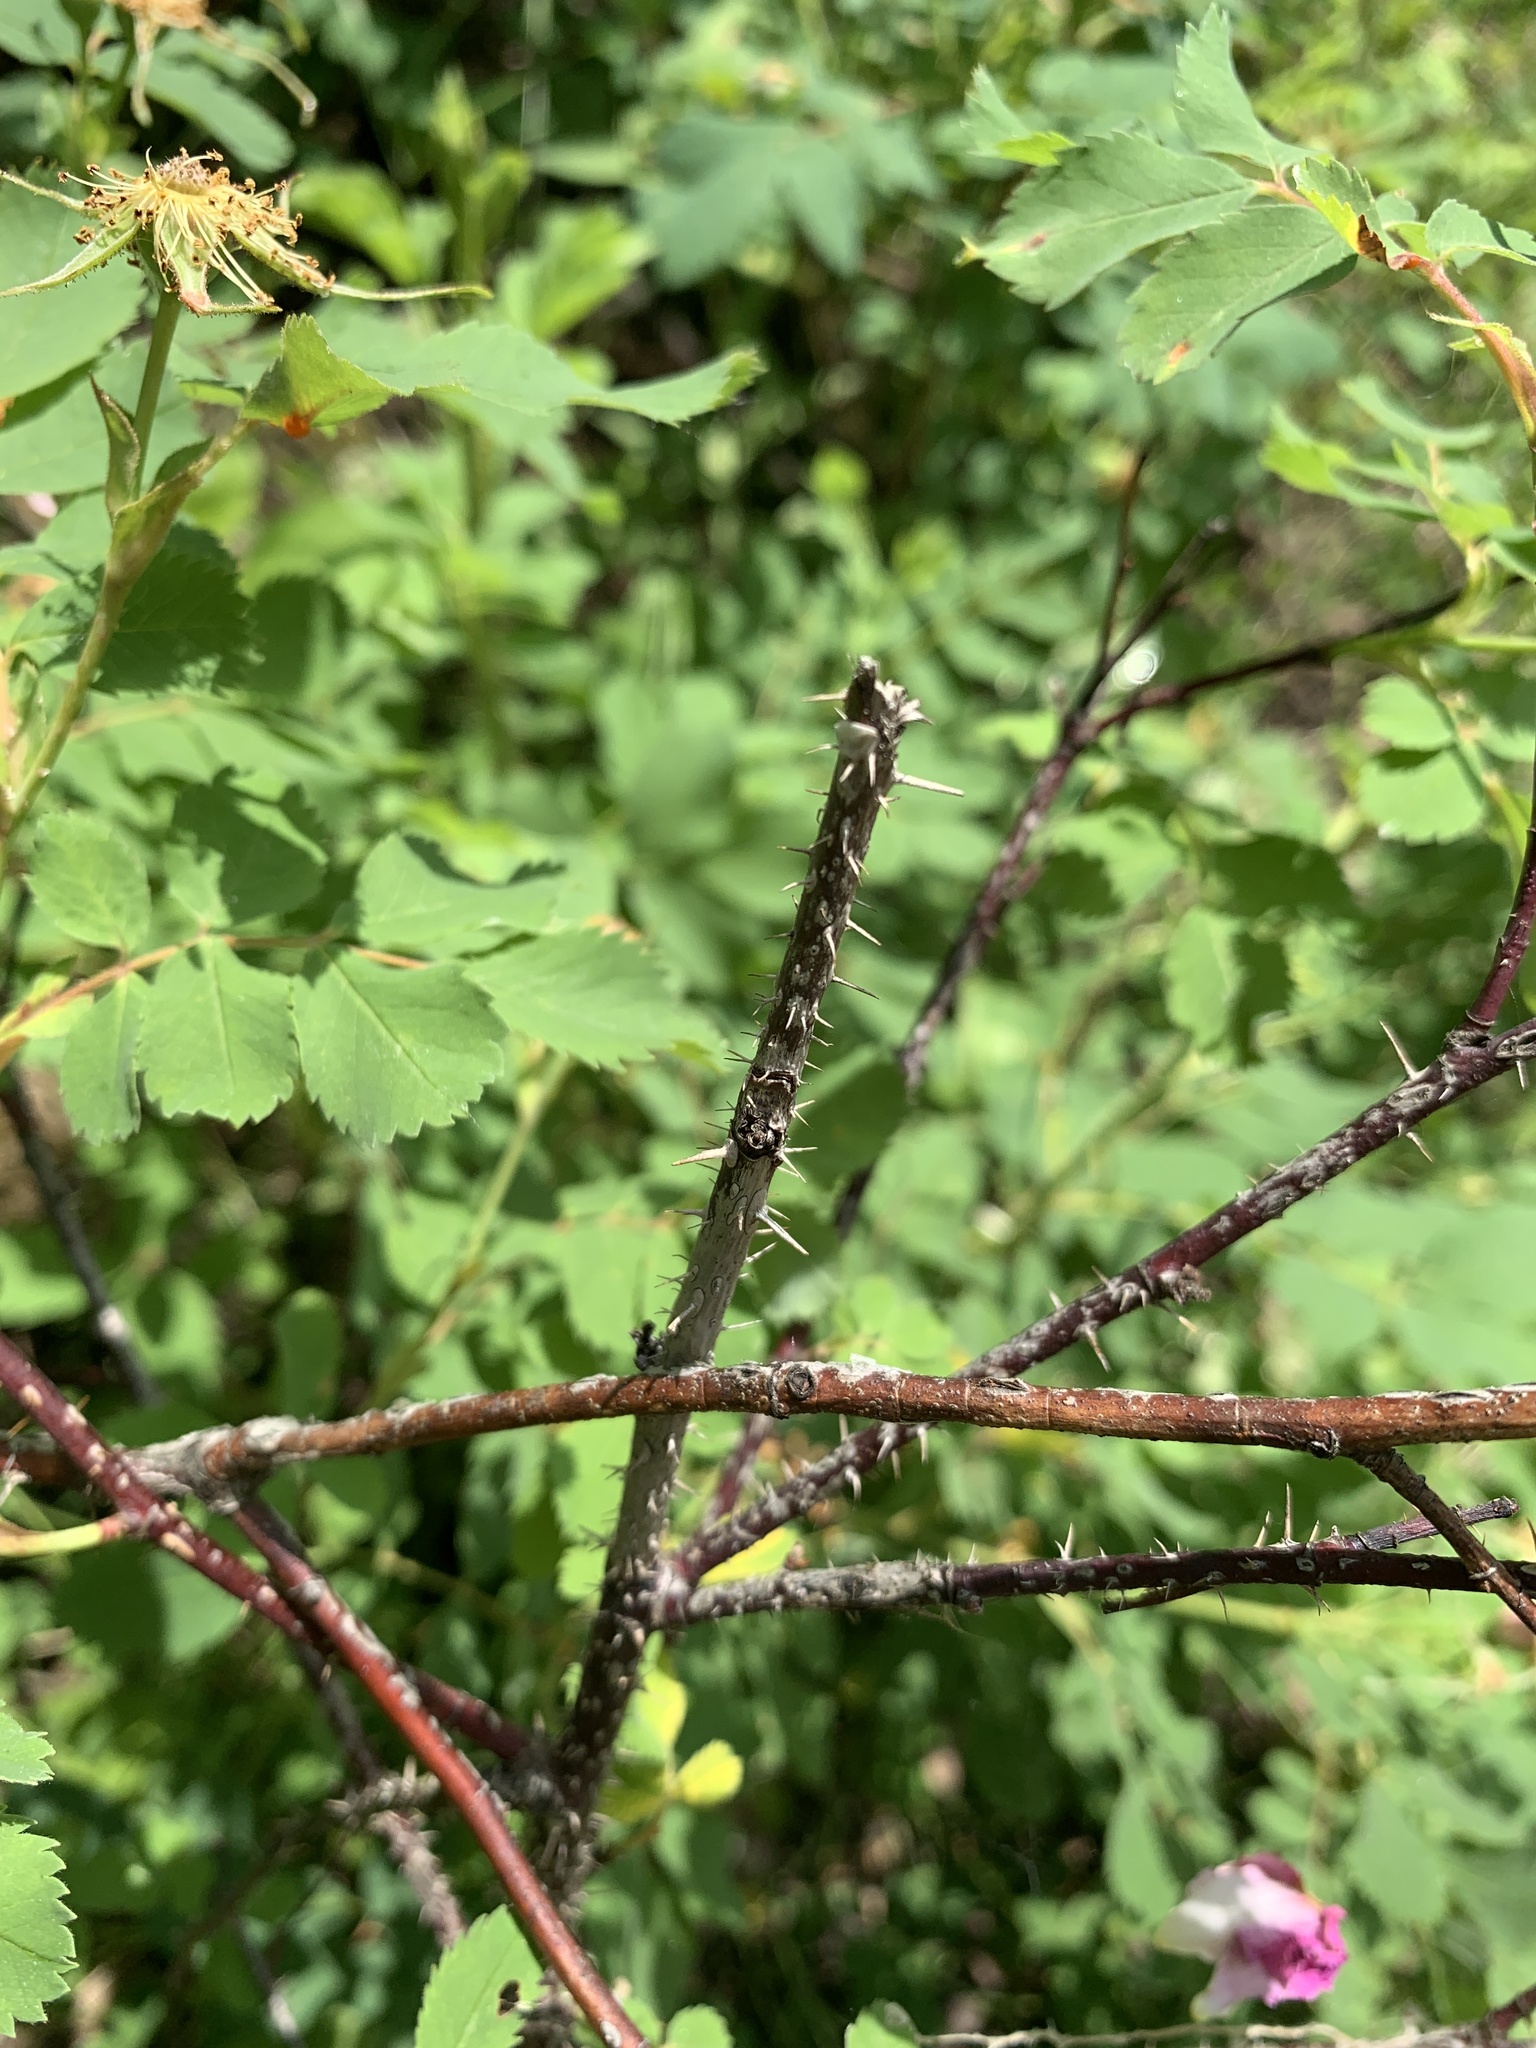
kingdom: Plantae
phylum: Tracheophyta
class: Magnoliopsida
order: Rosales
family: Rosaceae
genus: Rosa
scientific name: Rosa acicularis
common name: Prickly rose
